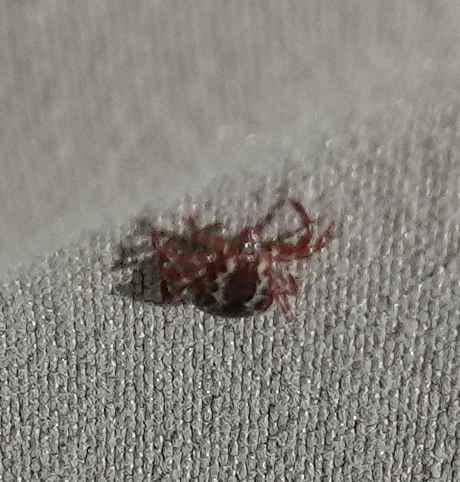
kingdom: Animalia
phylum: Arthropoda
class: Arachnida
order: Ixodida
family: Ixodidae
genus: Dermacentor
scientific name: Dermacentor variabilis
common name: American dog tick
